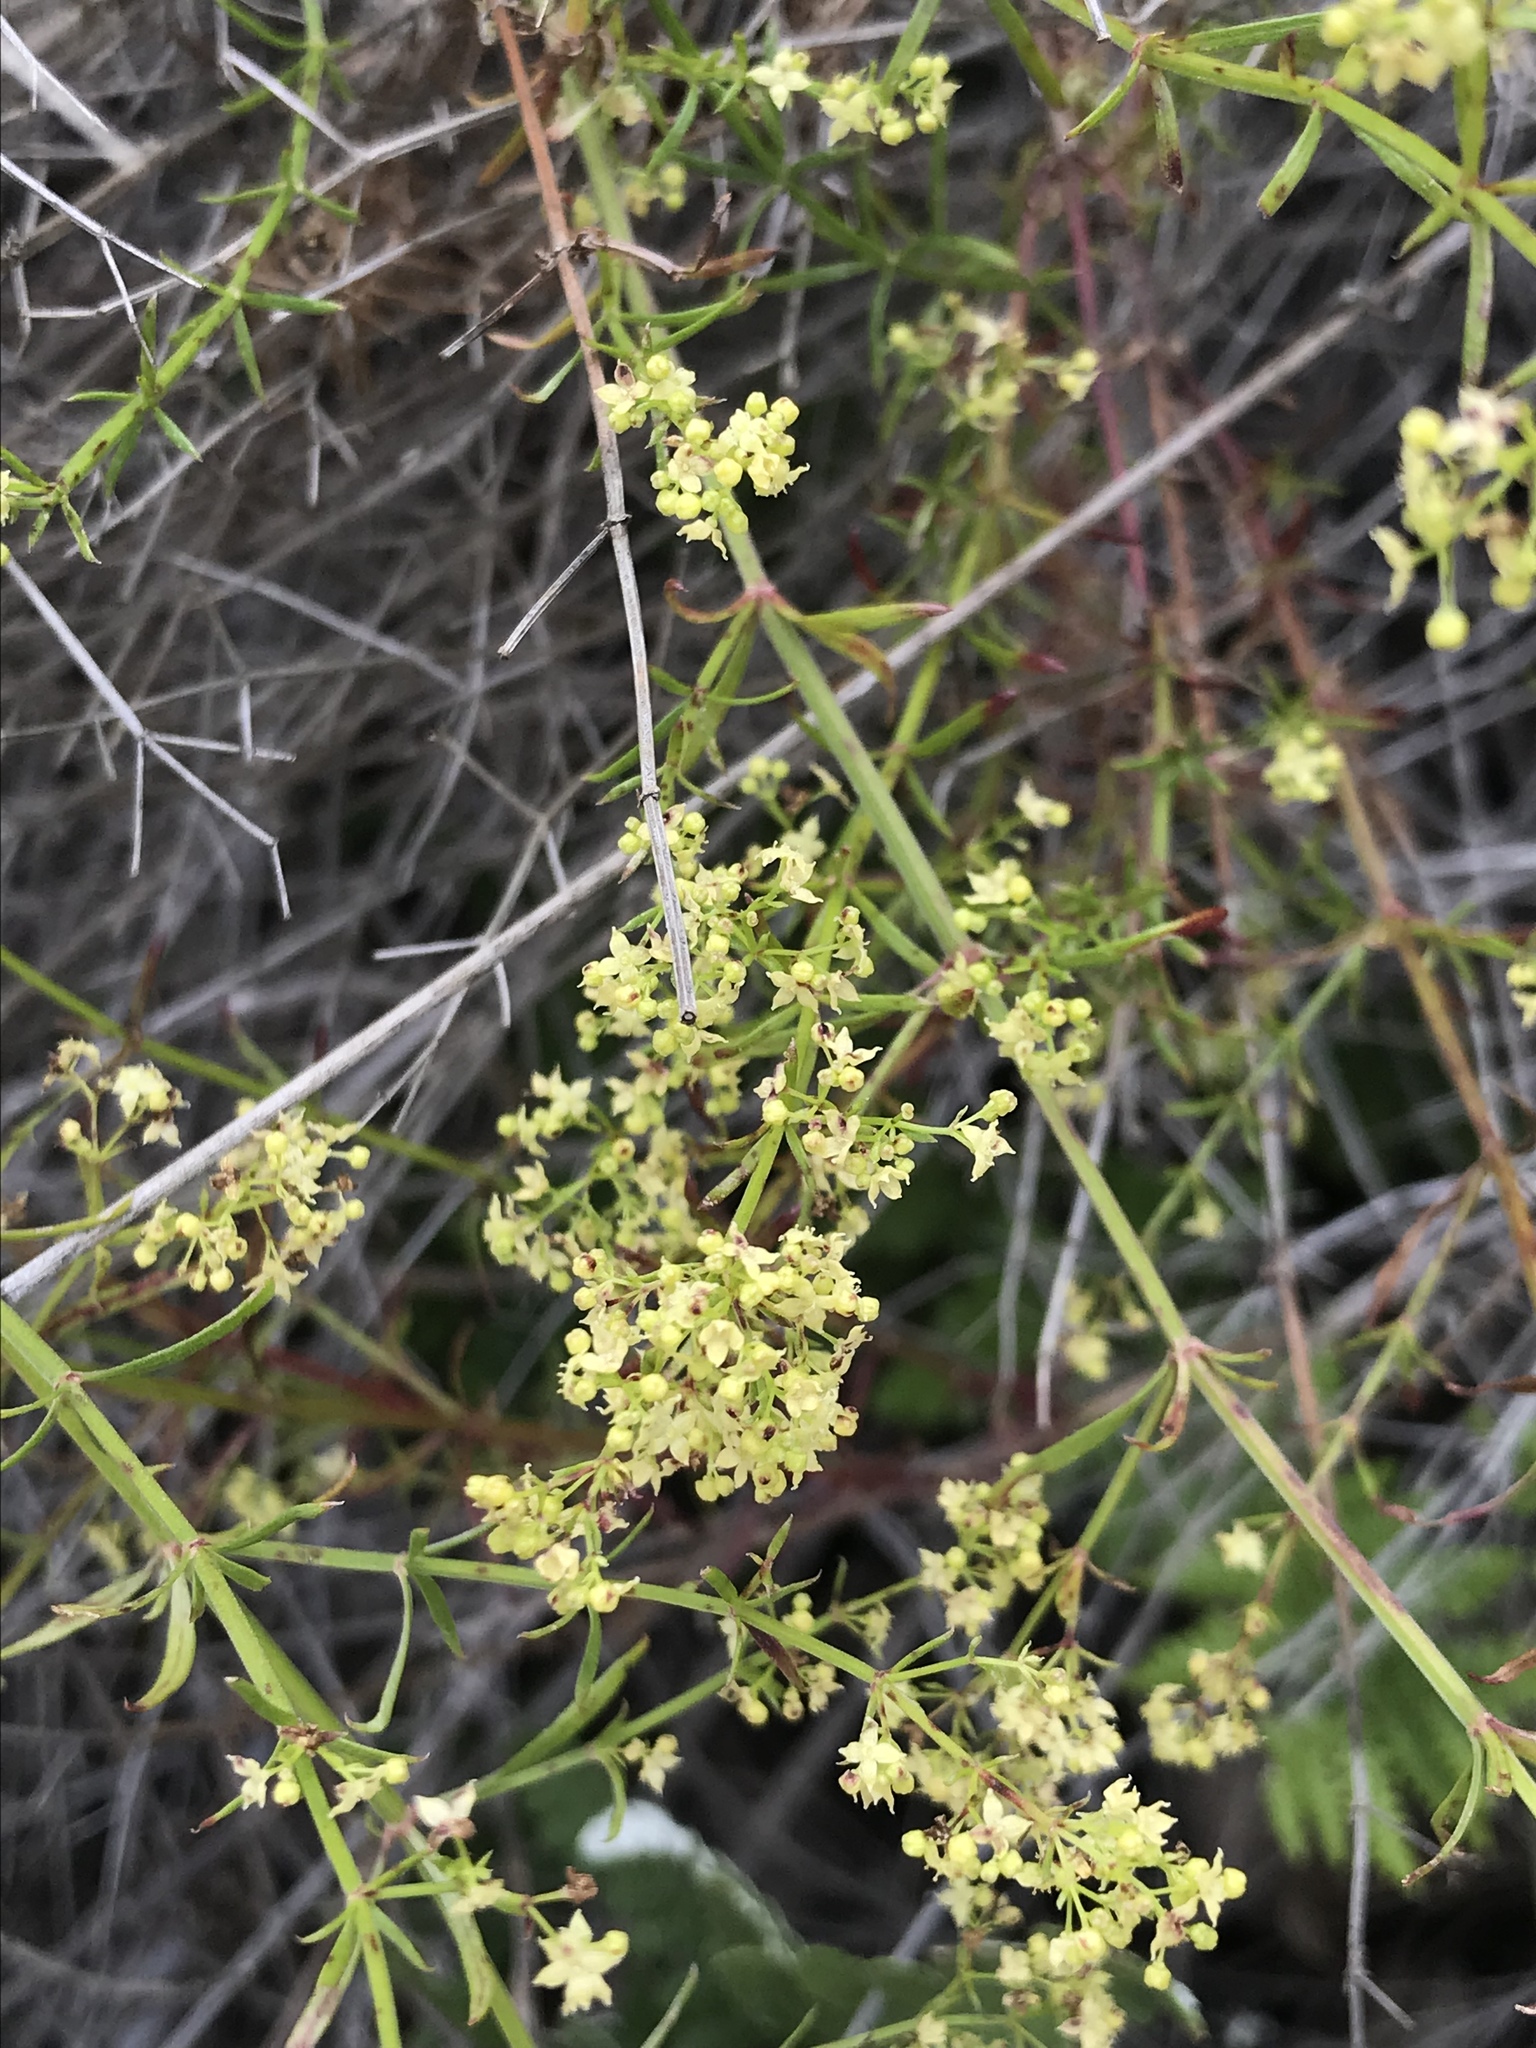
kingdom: Plantae
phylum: Tracheophyta
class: Magnoliopsida
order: Gentianales
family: Rubiaceae
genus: Galium
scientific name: Galium angustifolium
